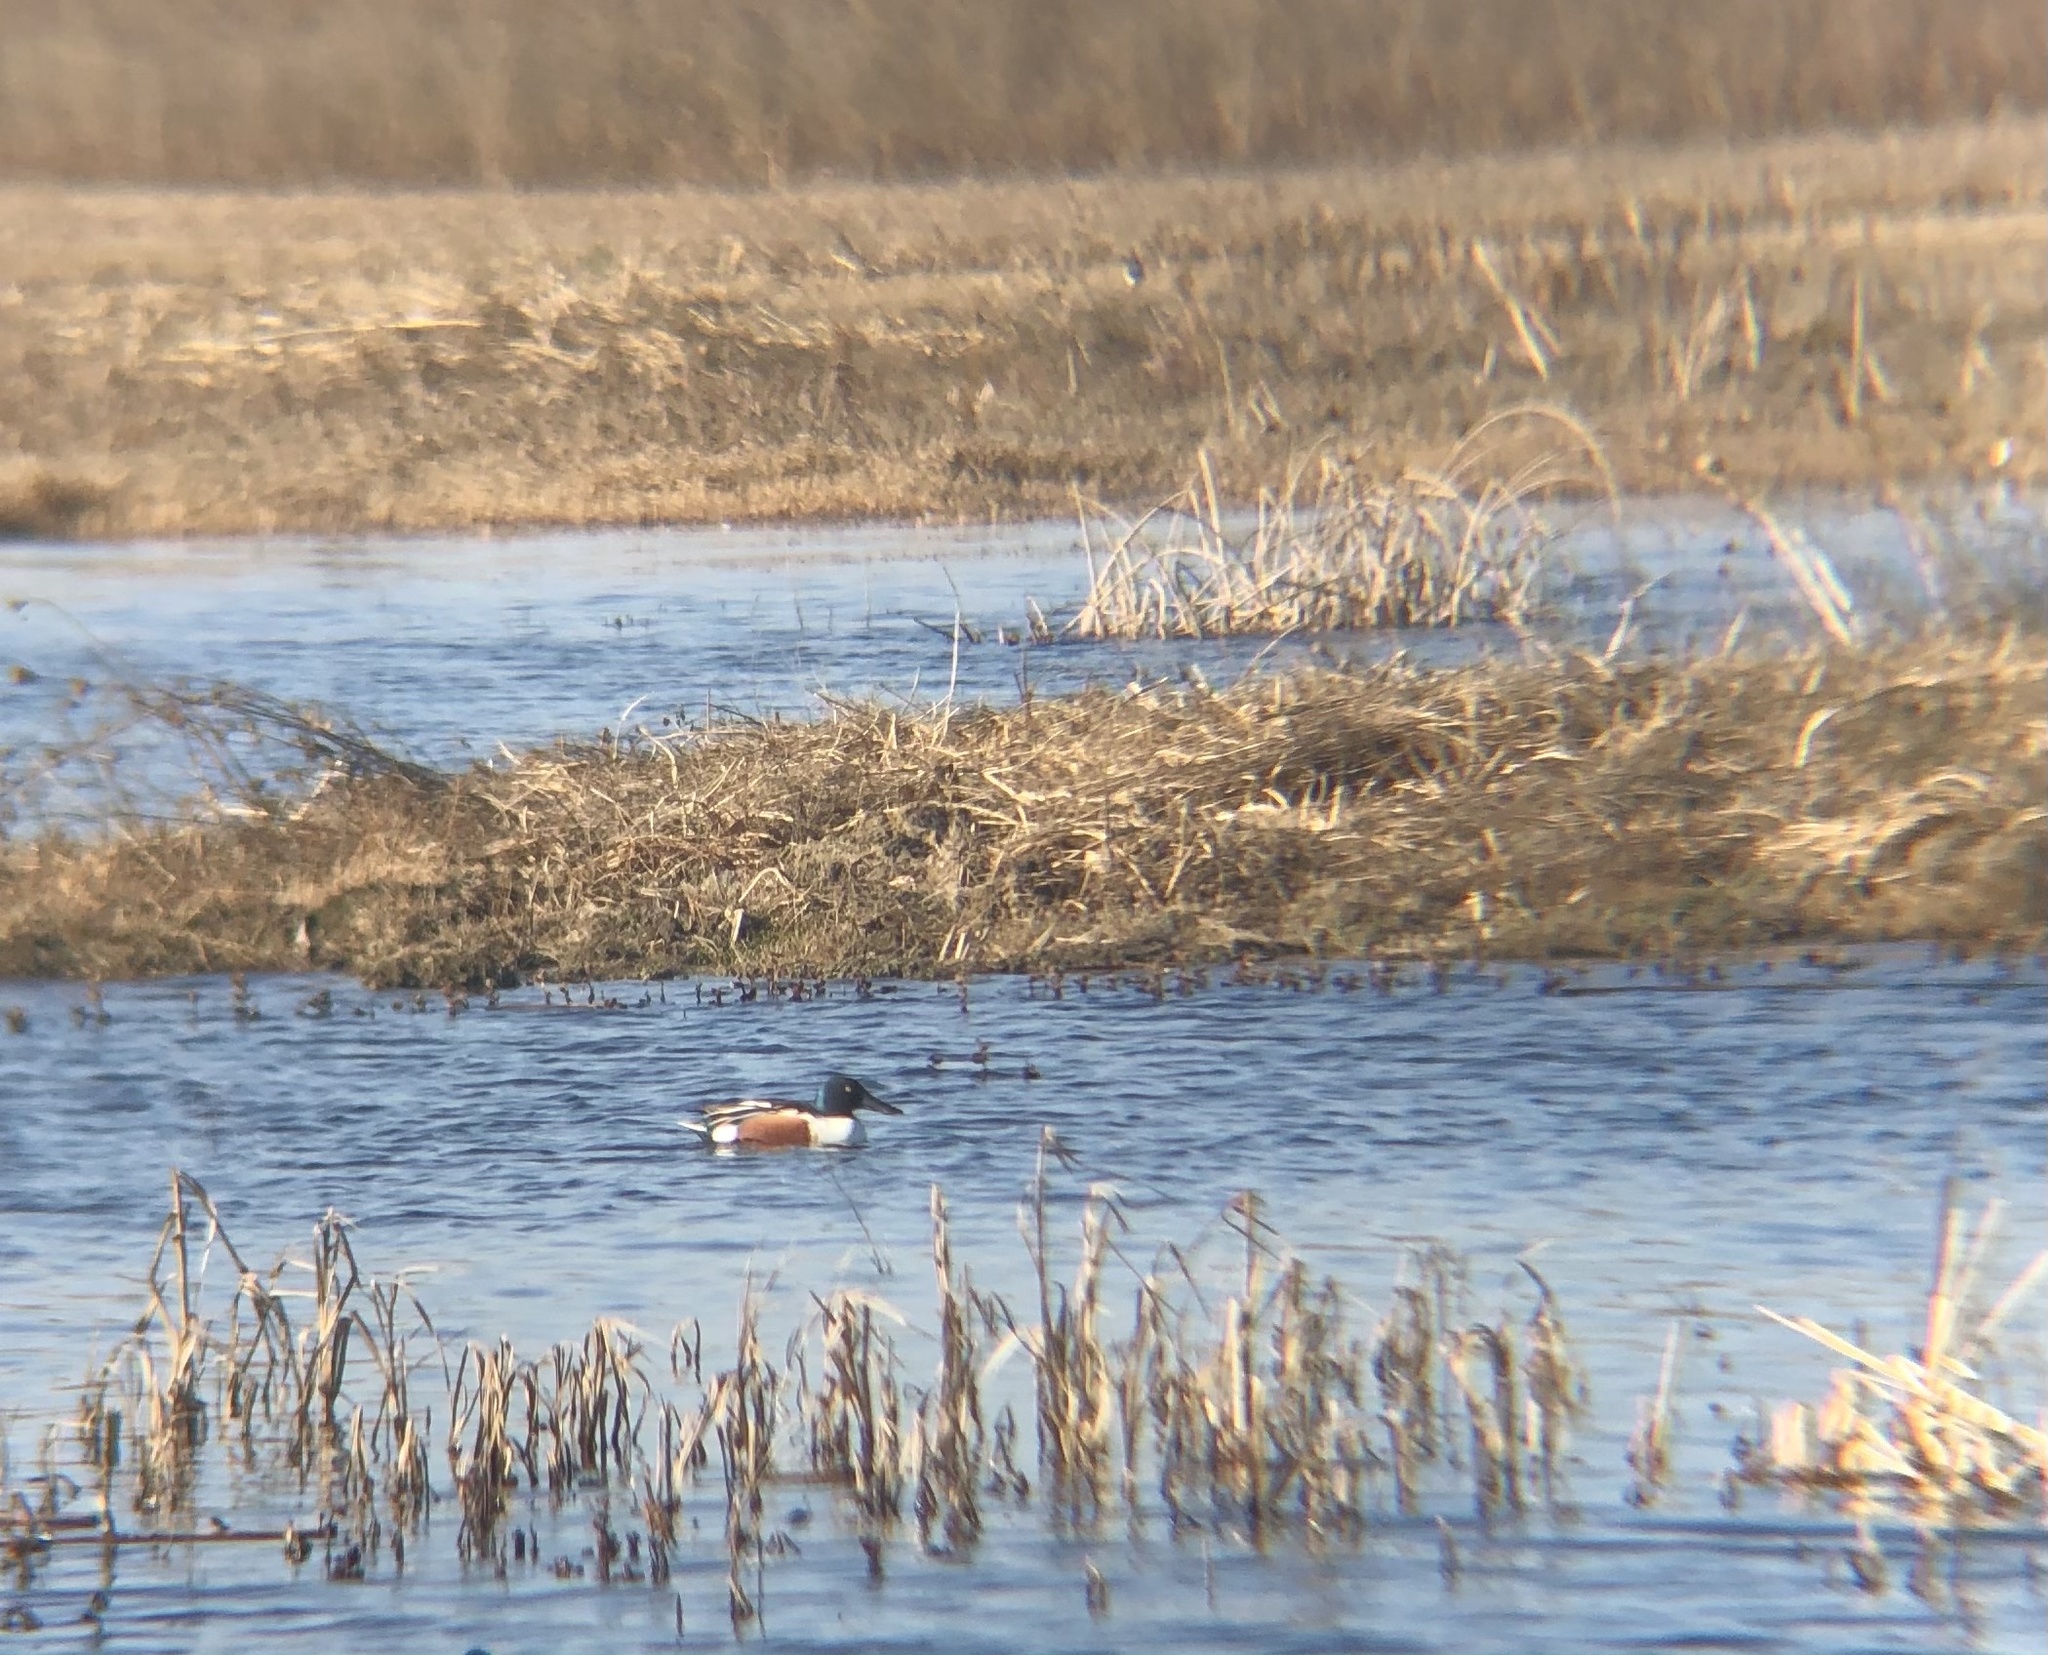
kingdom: Animalia
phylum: Chordata
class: Aves
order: Anseriformes
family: Anatidae
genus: Spatula
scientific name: Spatula clypeata
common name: Northern shoveler
